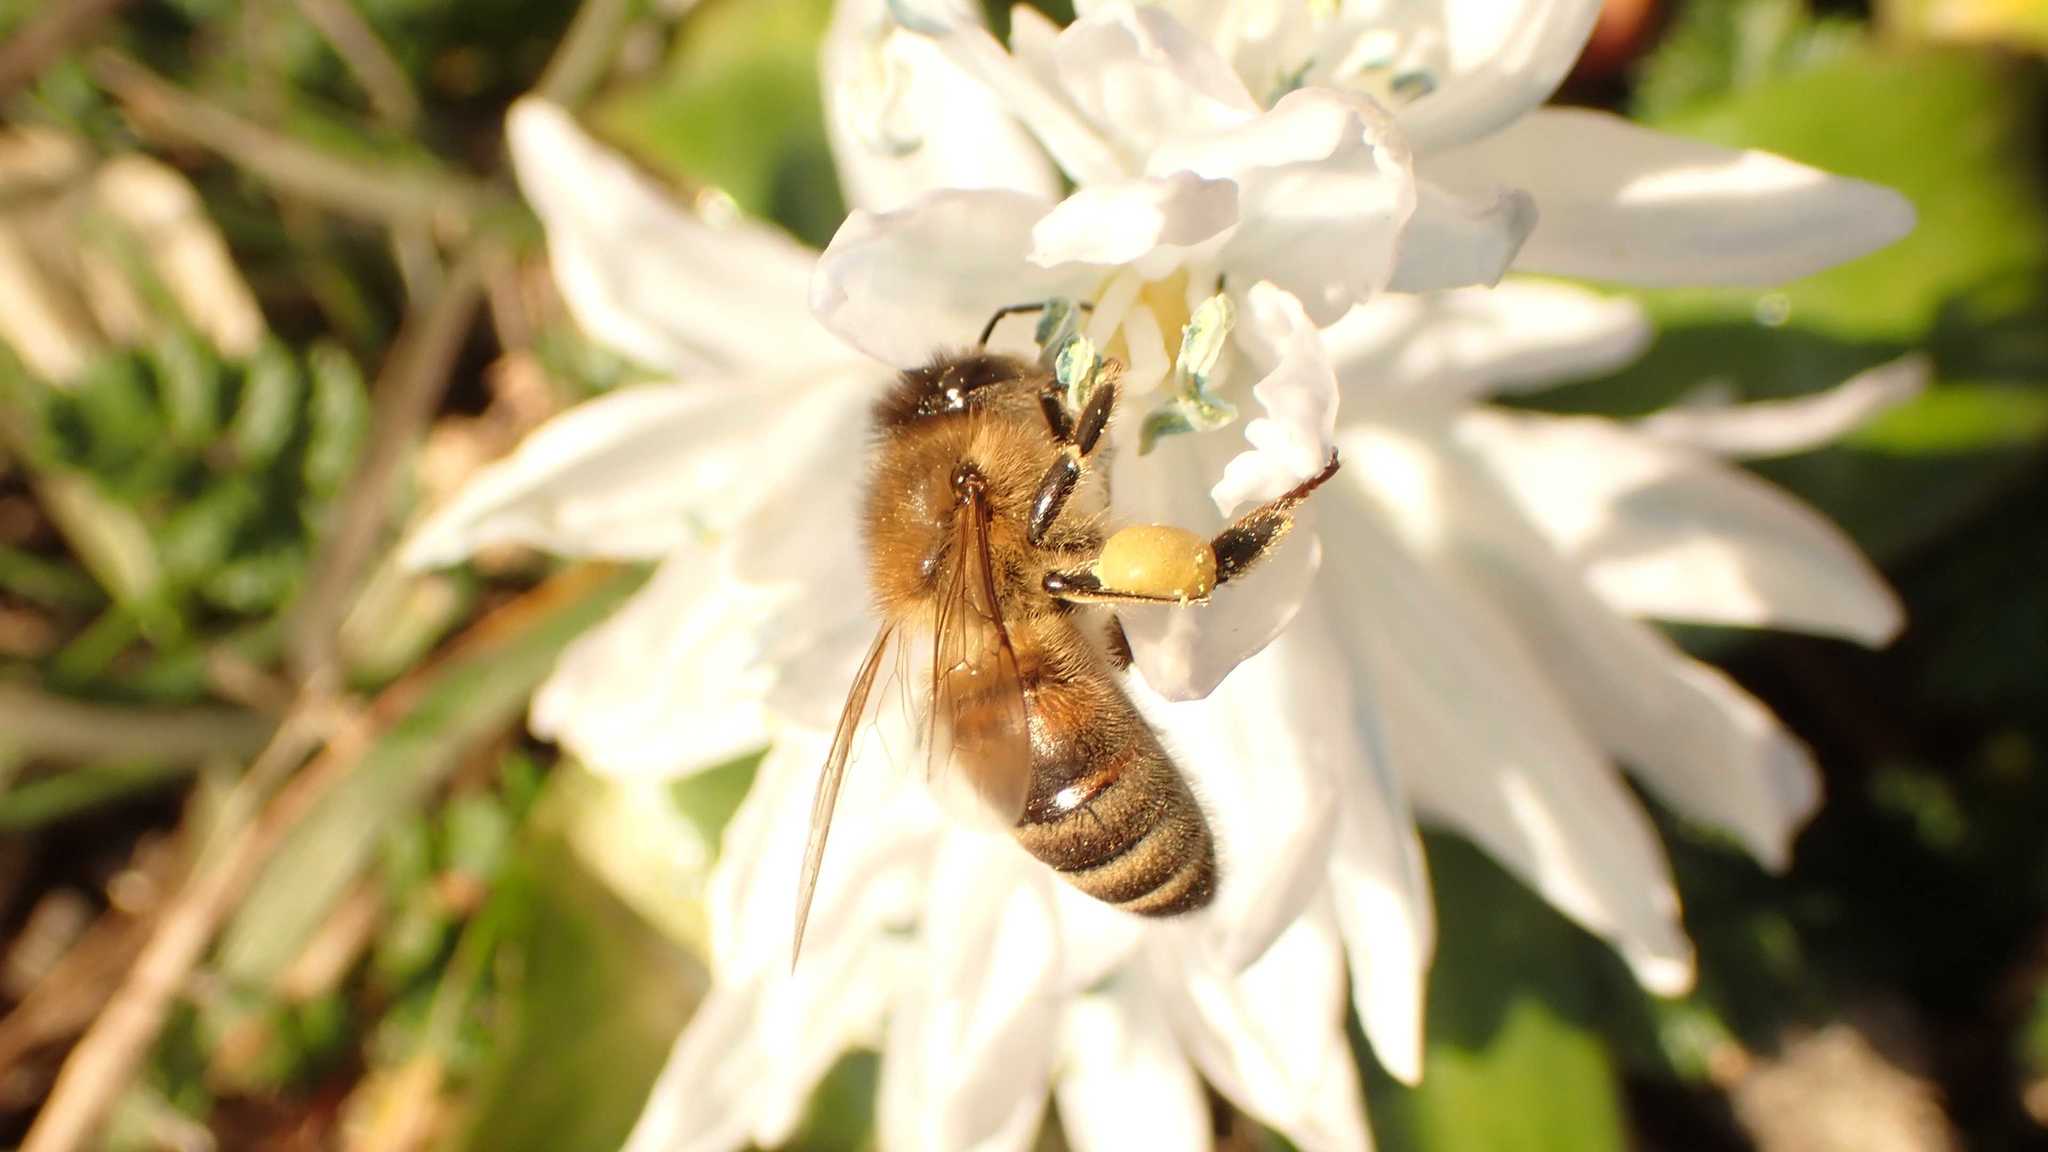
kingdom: Animalia
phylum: Arthropoda
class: Insecta
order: Hymenoptera
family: Apidae
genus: Apis
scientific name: Apis mellifera
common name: Honey bee
